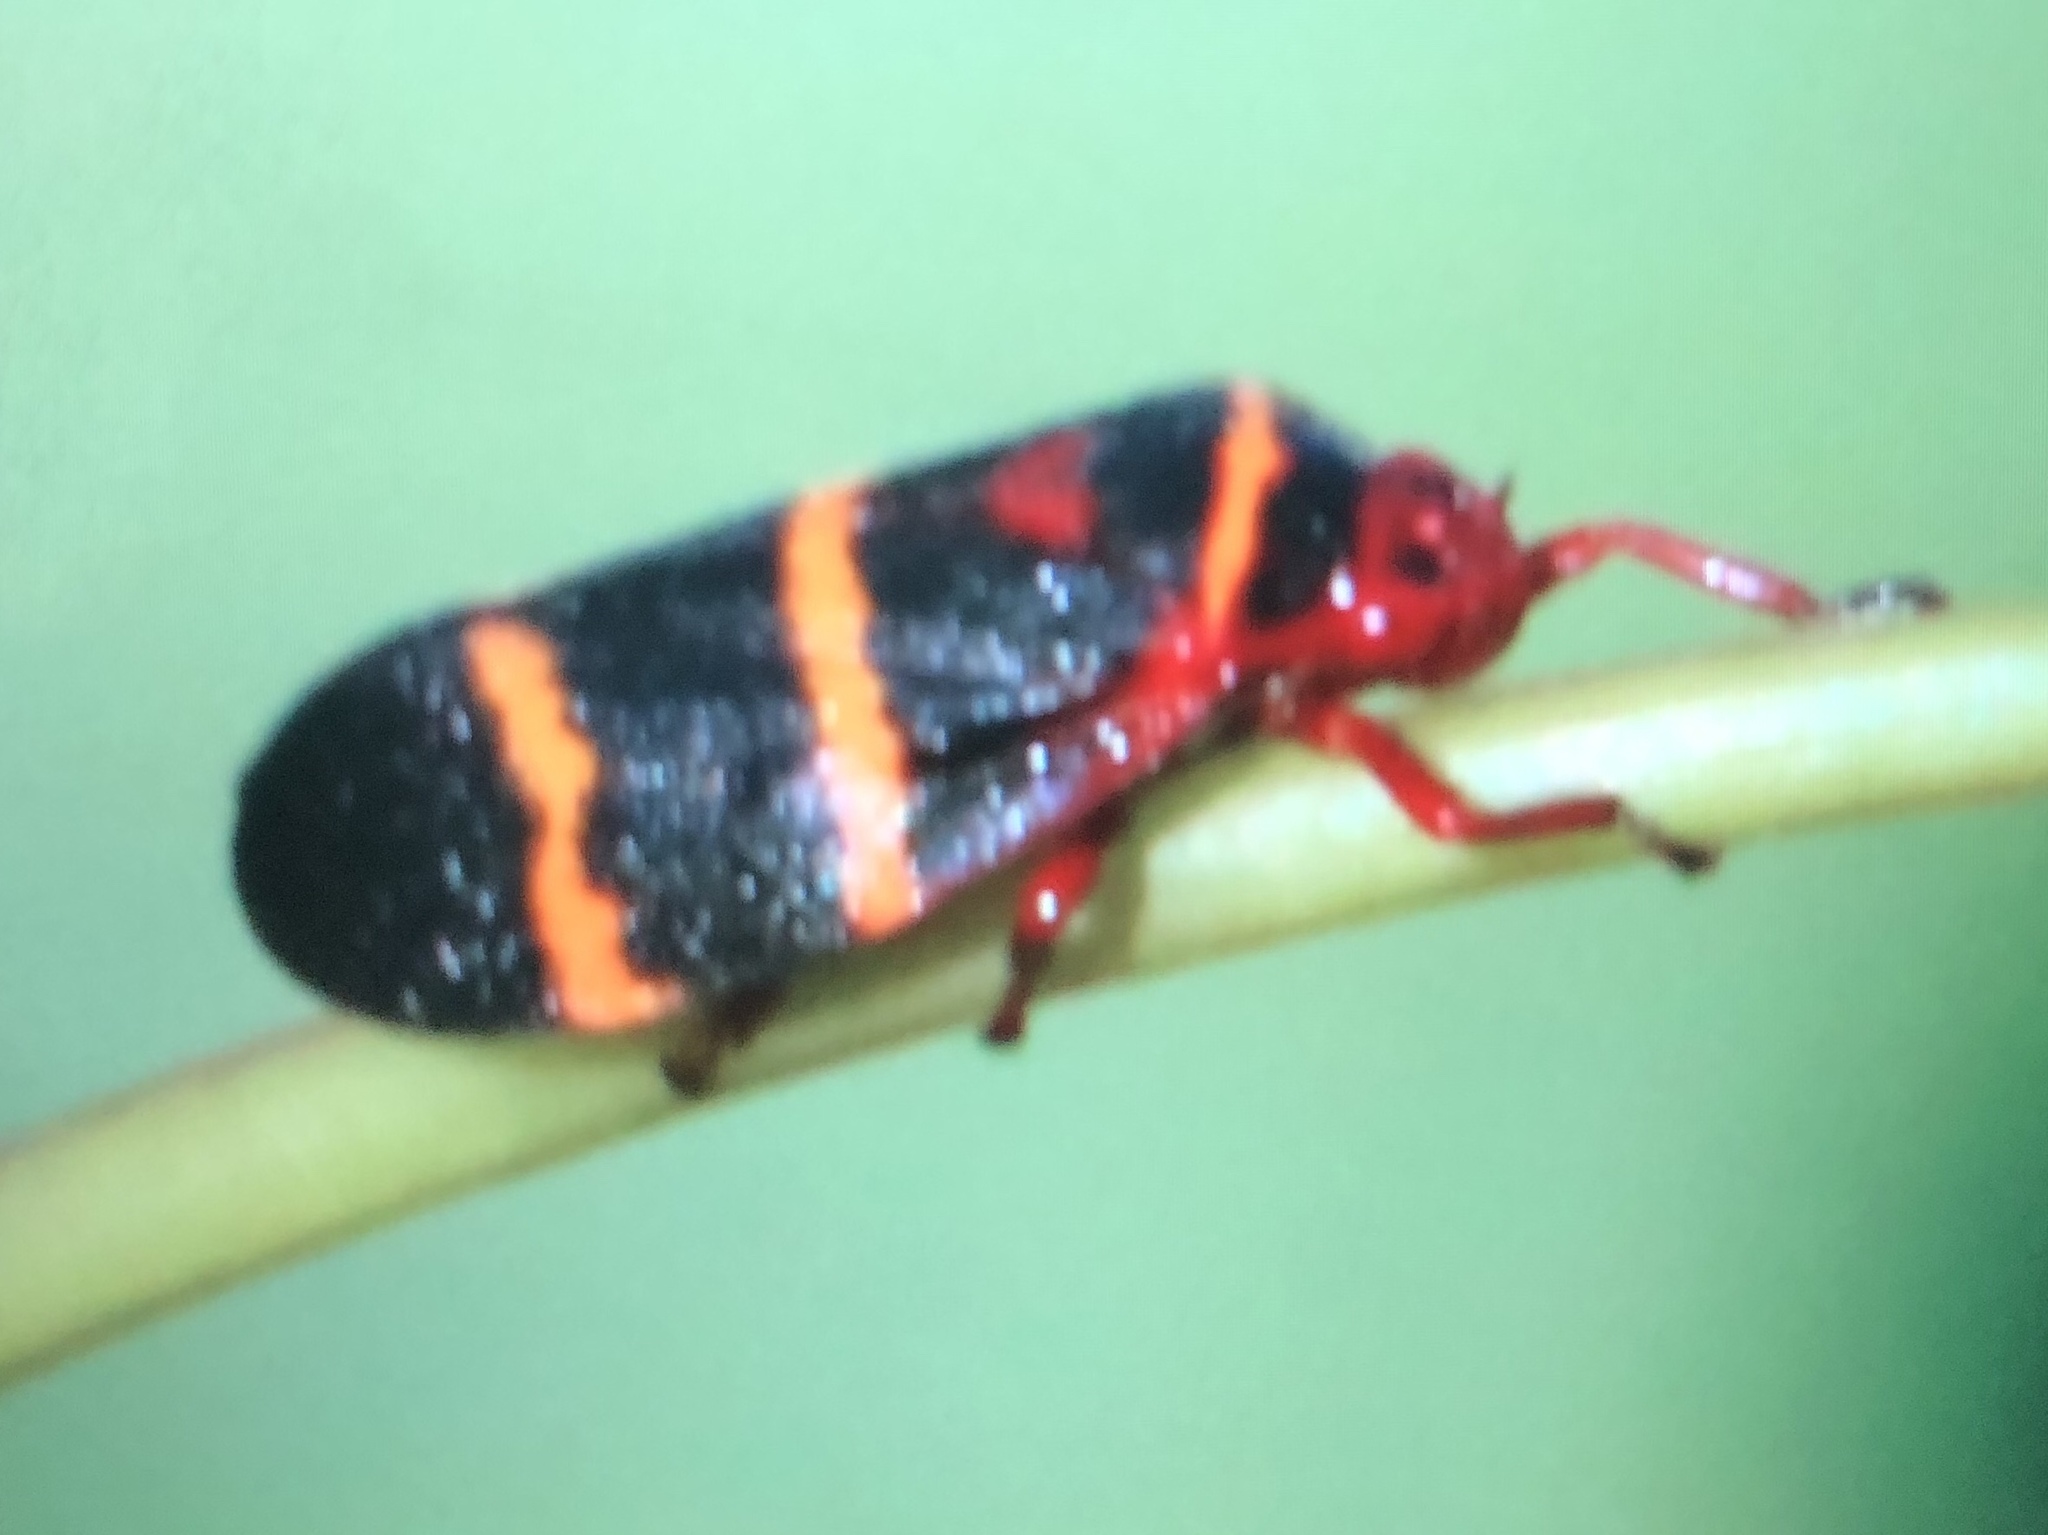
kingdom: Animalia
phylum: Arthropoda
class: Insecta
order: Hemiptera
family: Cercopidae
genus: Prosapia
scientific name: Prosapia bicincta
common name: Twolined spittlebug
